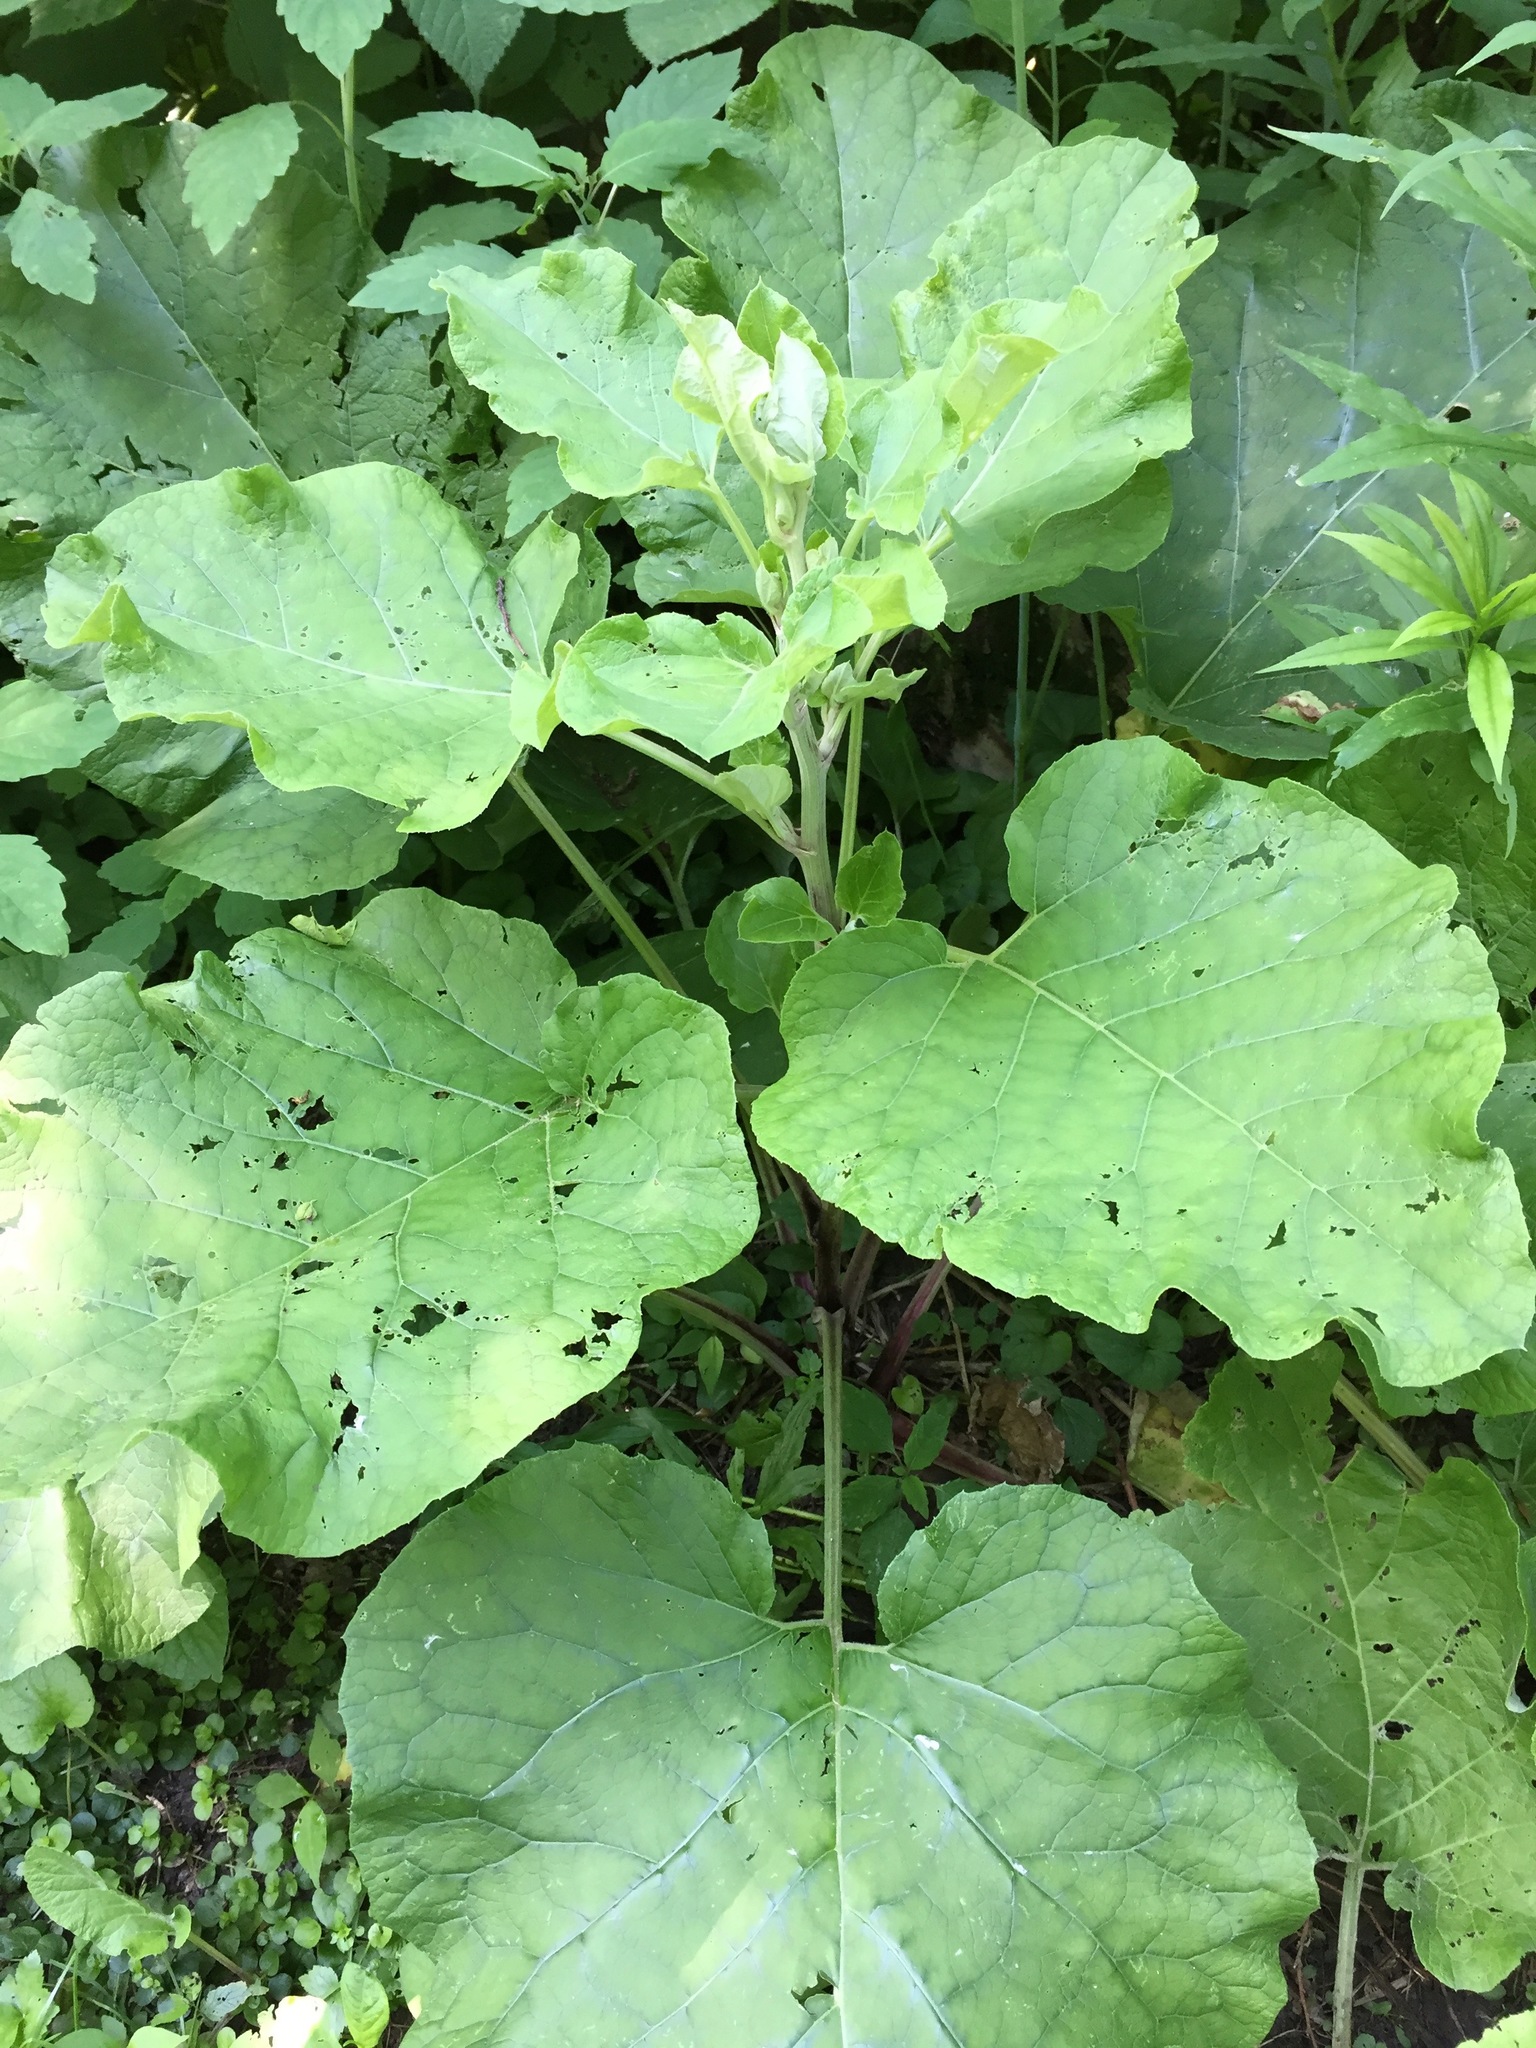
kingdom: Plantae
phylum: Tracheophyta
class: Magnoliopsida
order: Asterales
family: Asteraceae
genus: Arctium
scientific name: Arctium
